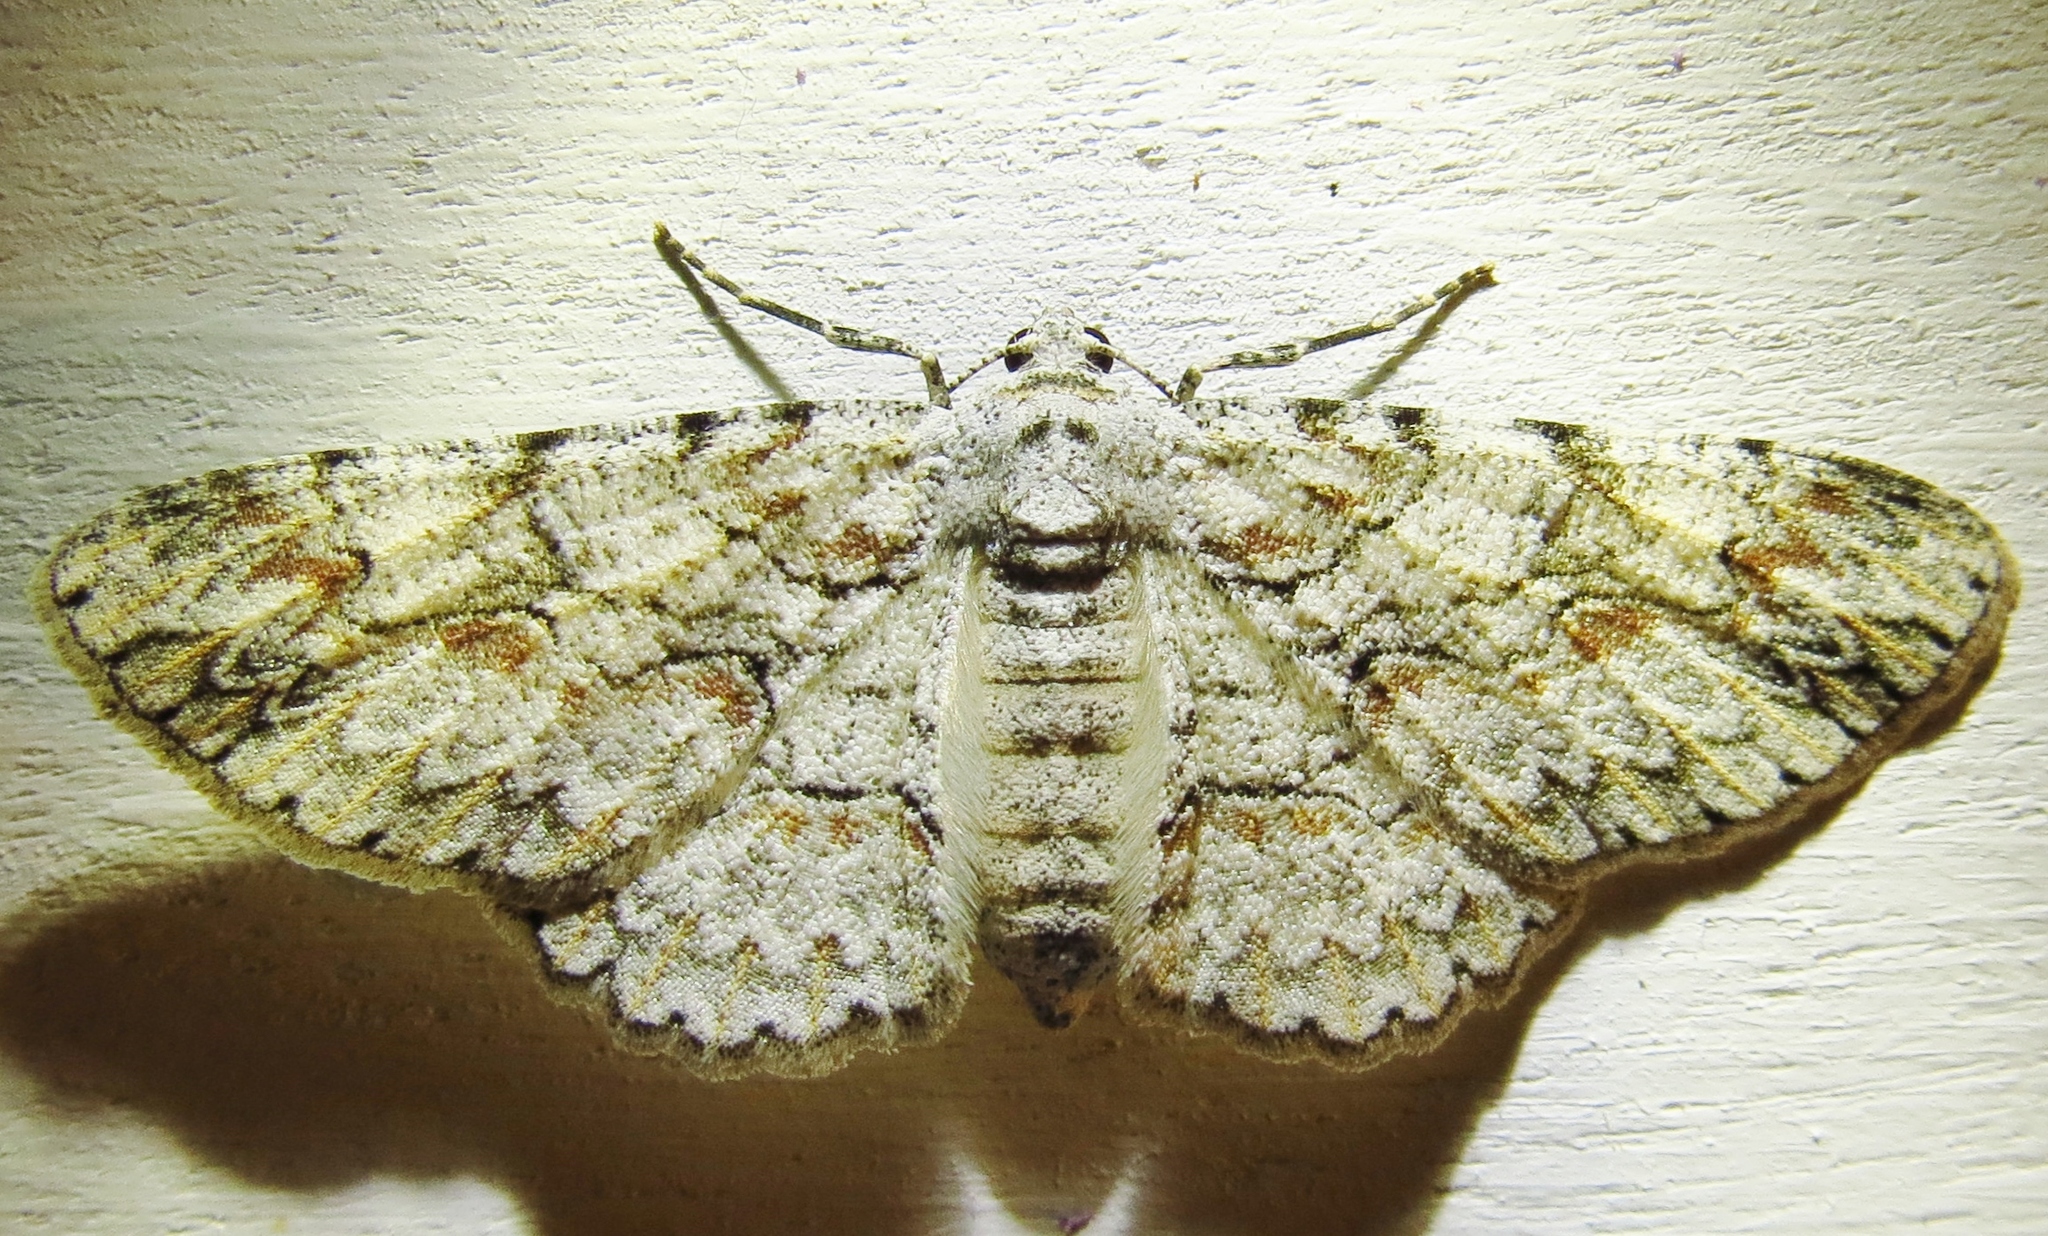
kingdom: Animalia
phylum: Arthropoda
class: Insecta
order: Lepidoptera
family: Geometridae
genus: Iridopsis
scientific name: Iridopsis defectaria
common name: Brown-shaded gray
